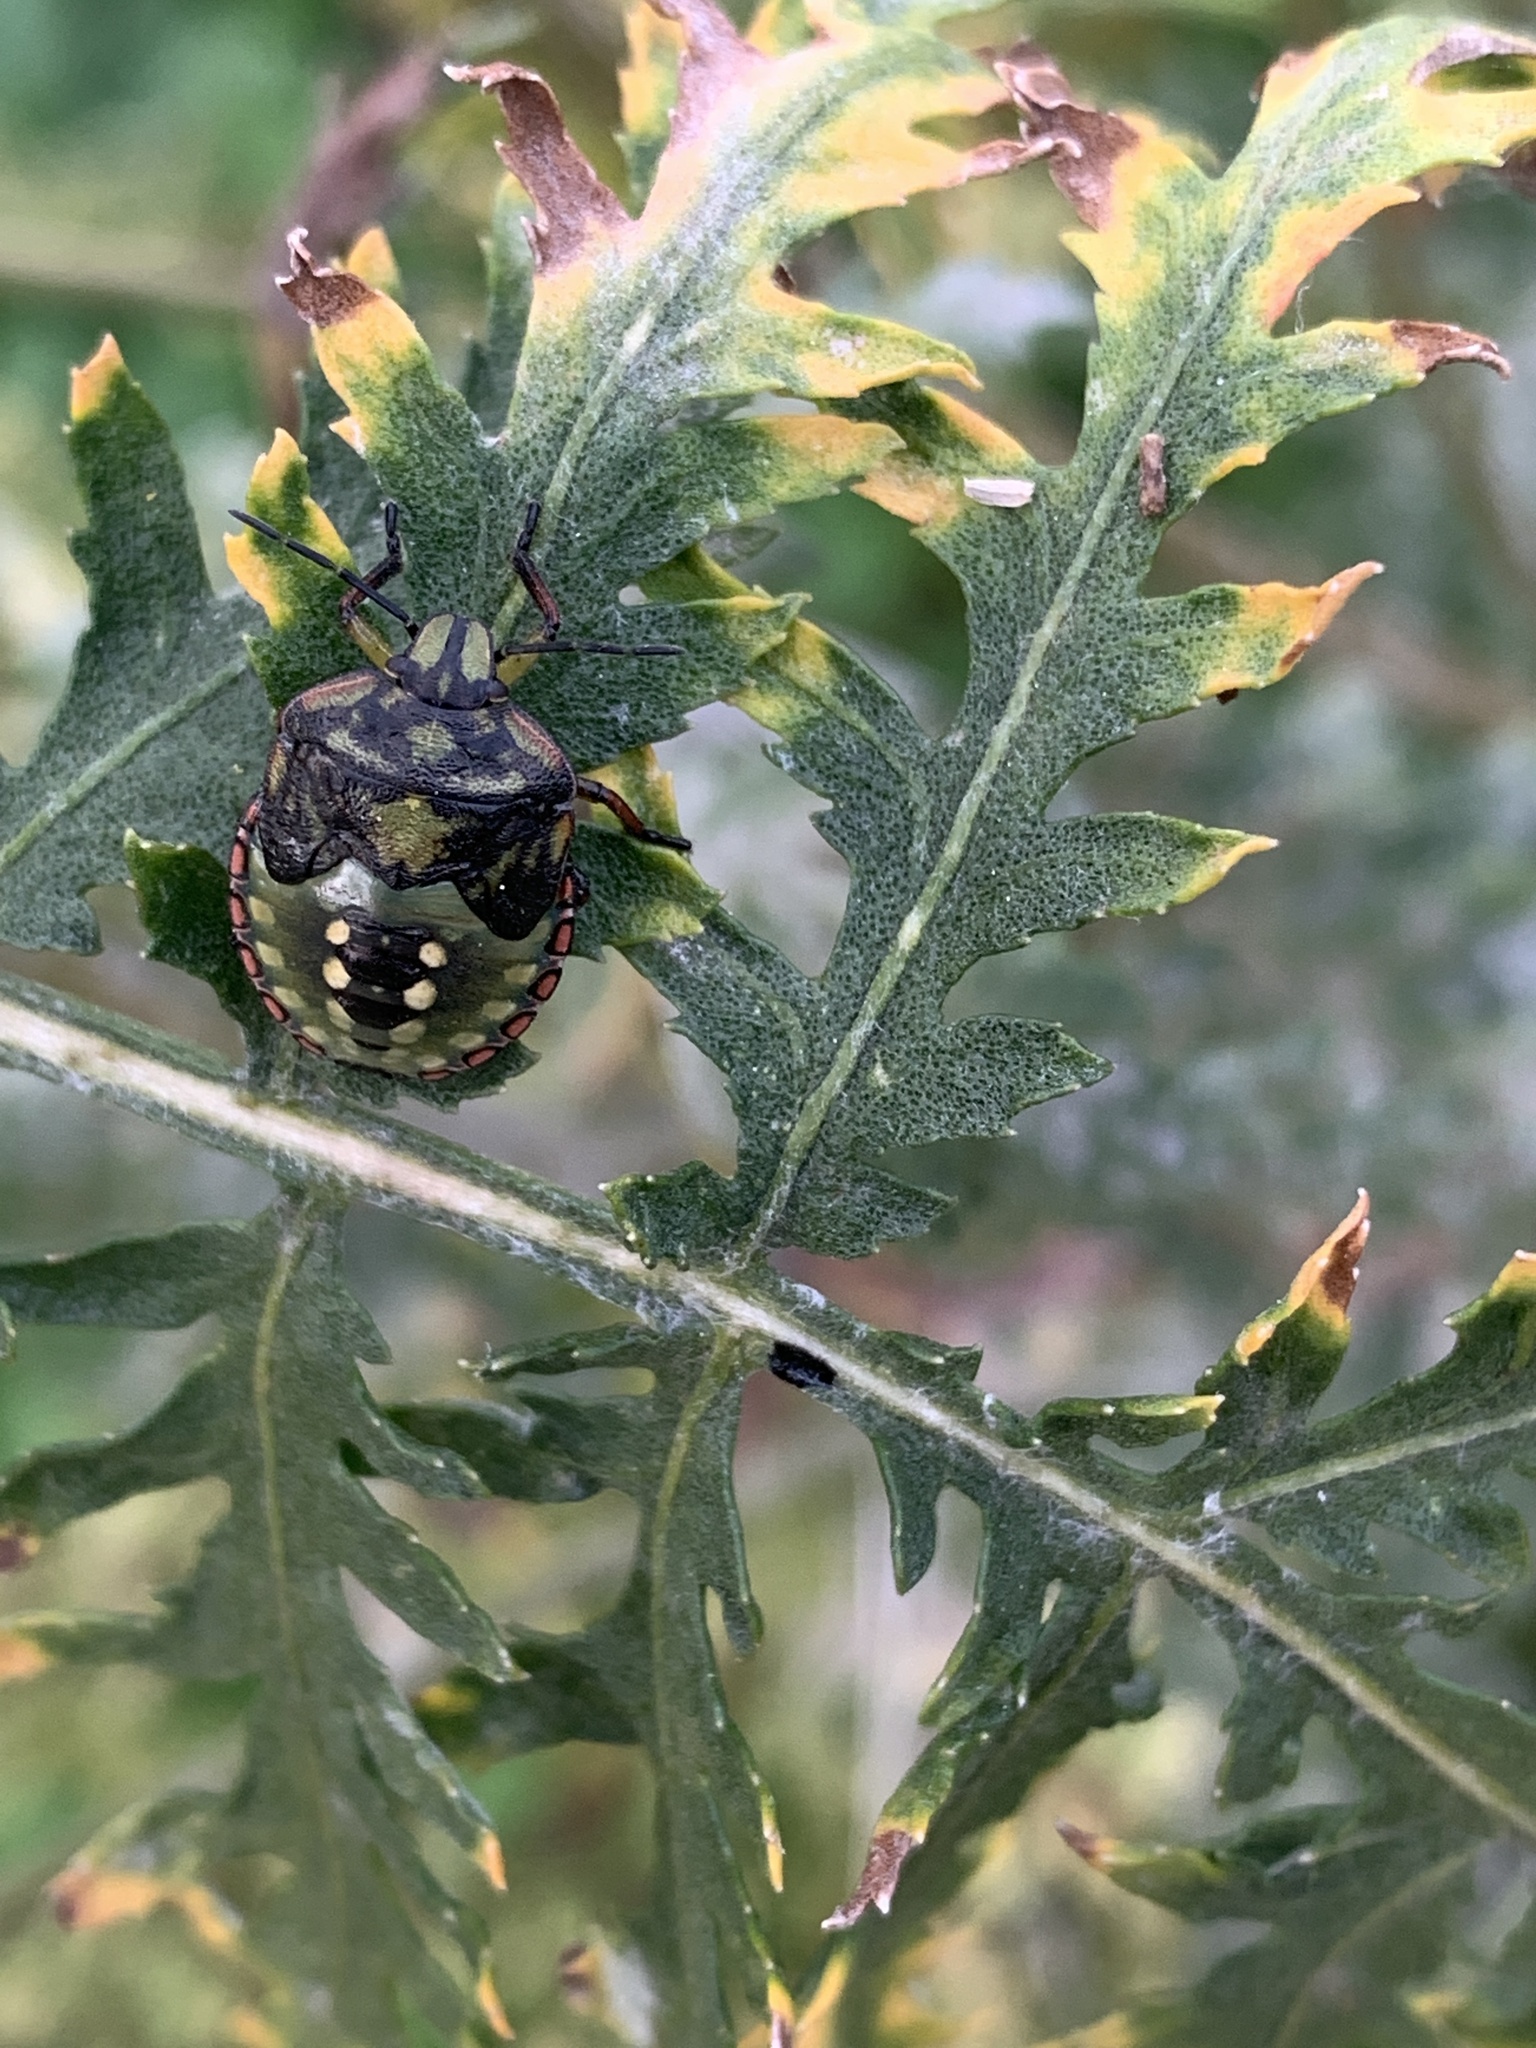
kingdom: Animalia
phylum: Arthropoda
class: Insecta
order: Hemiptera
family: Pentatomidae
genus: Nezara
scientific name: Nezara viridula
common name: Southern green stink bug
